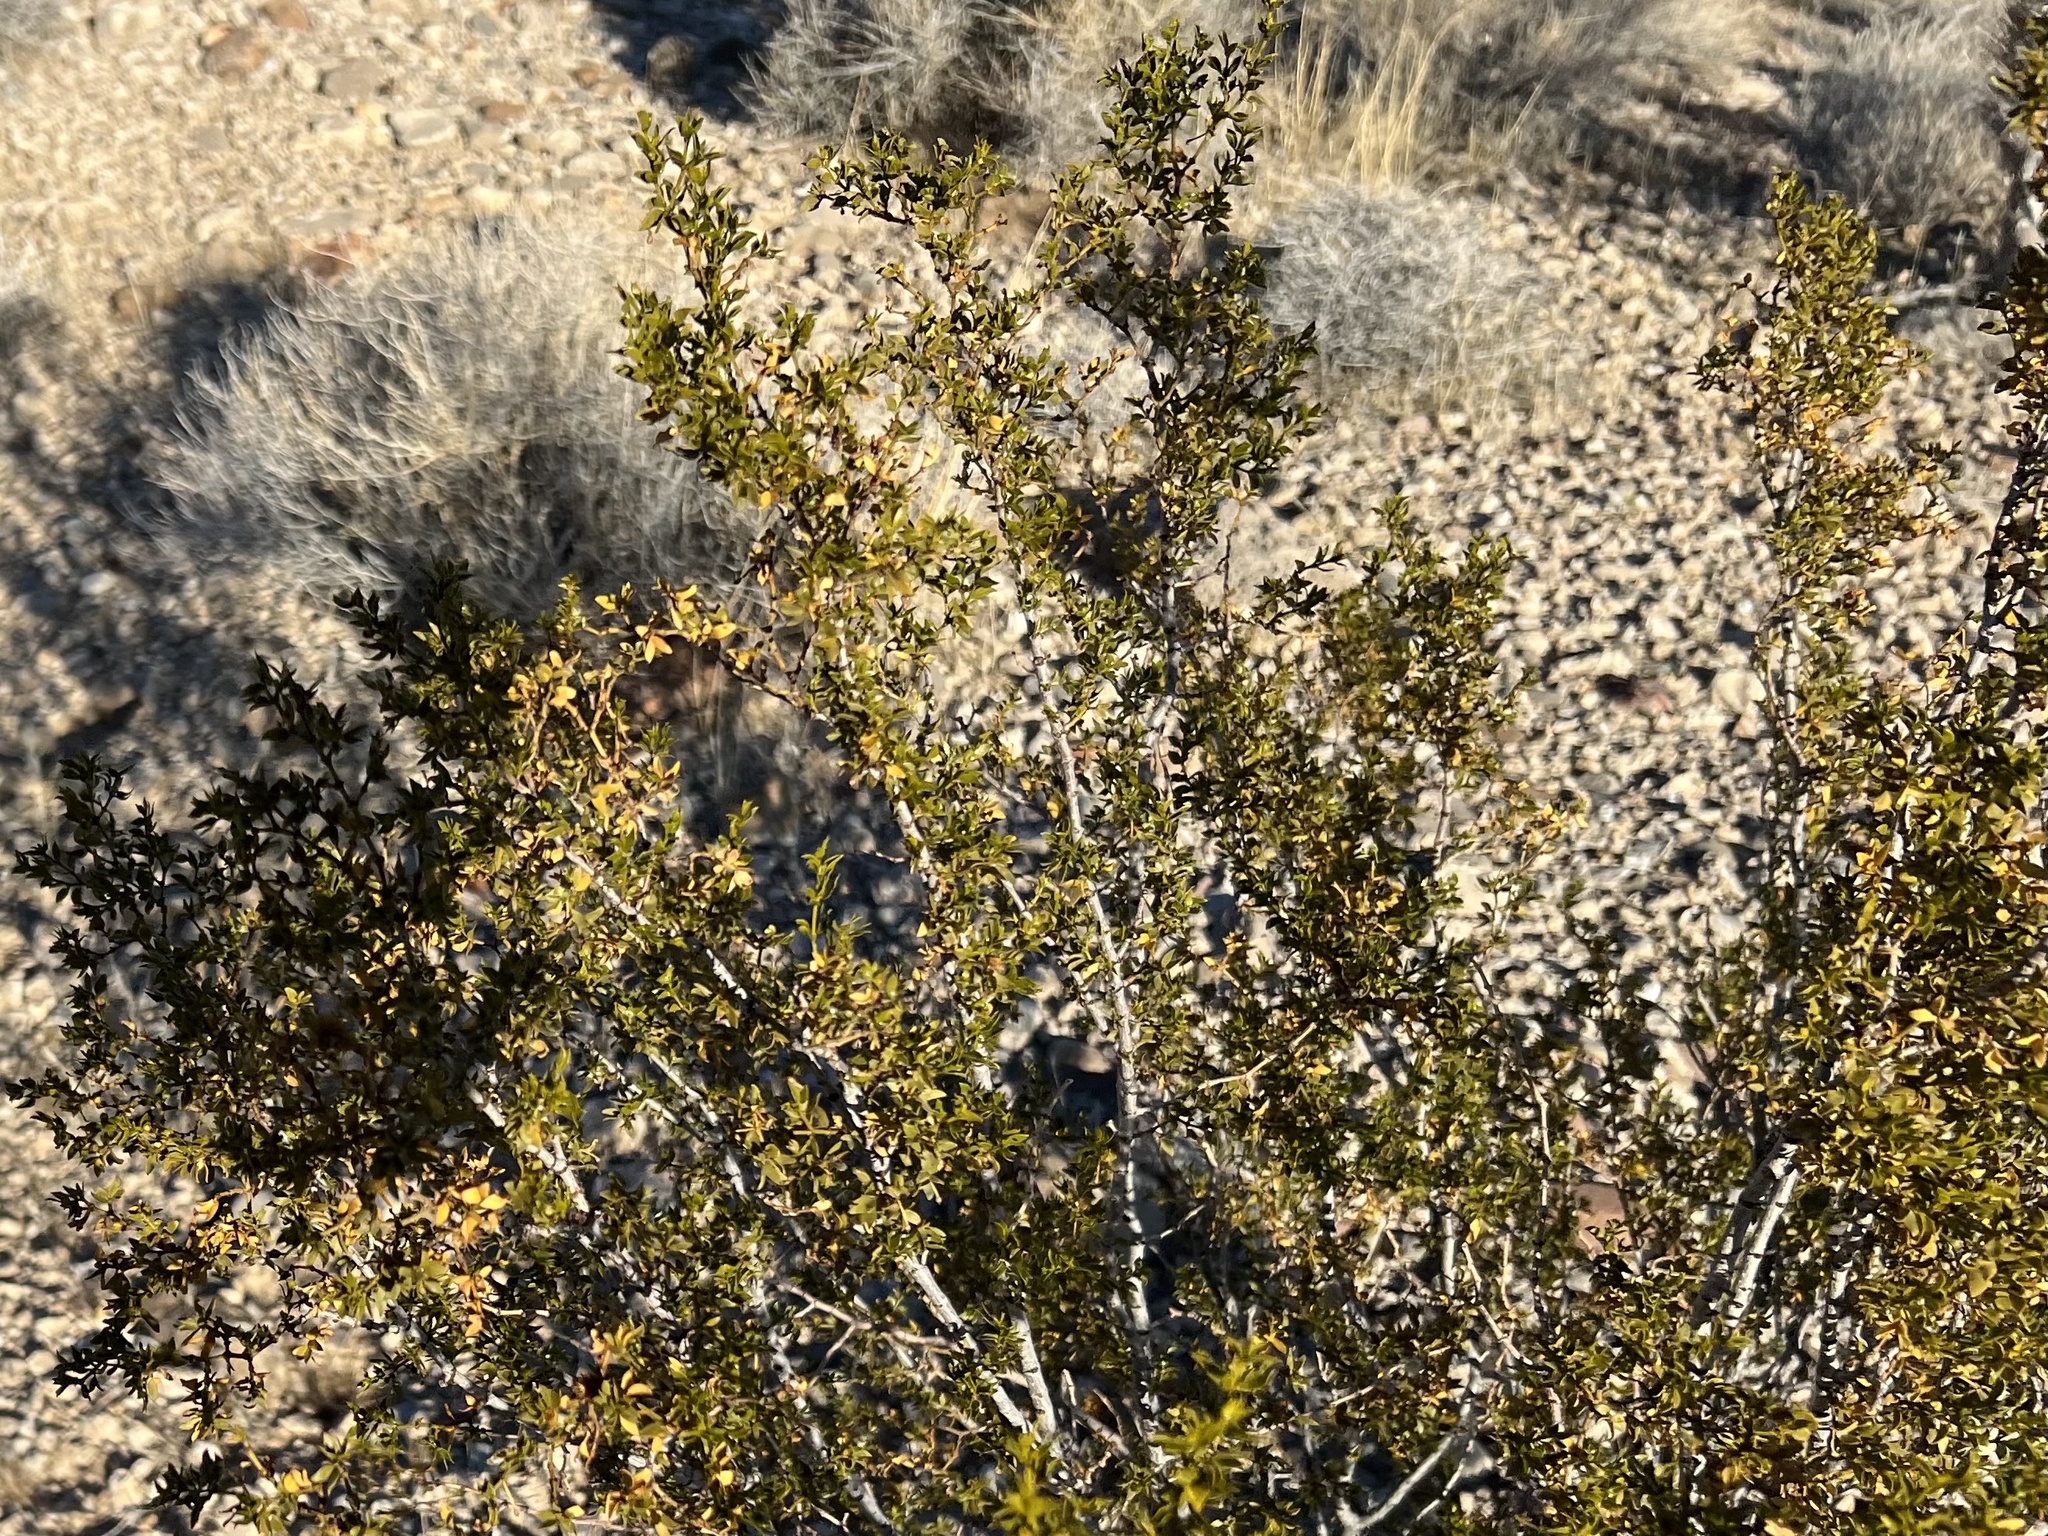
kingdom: Plantae
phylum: Tracheophyta
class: Magnoliopsida
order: Zygophyllales
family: Zygophyllaceae
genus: Larrea
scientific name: Larrea tridentata
